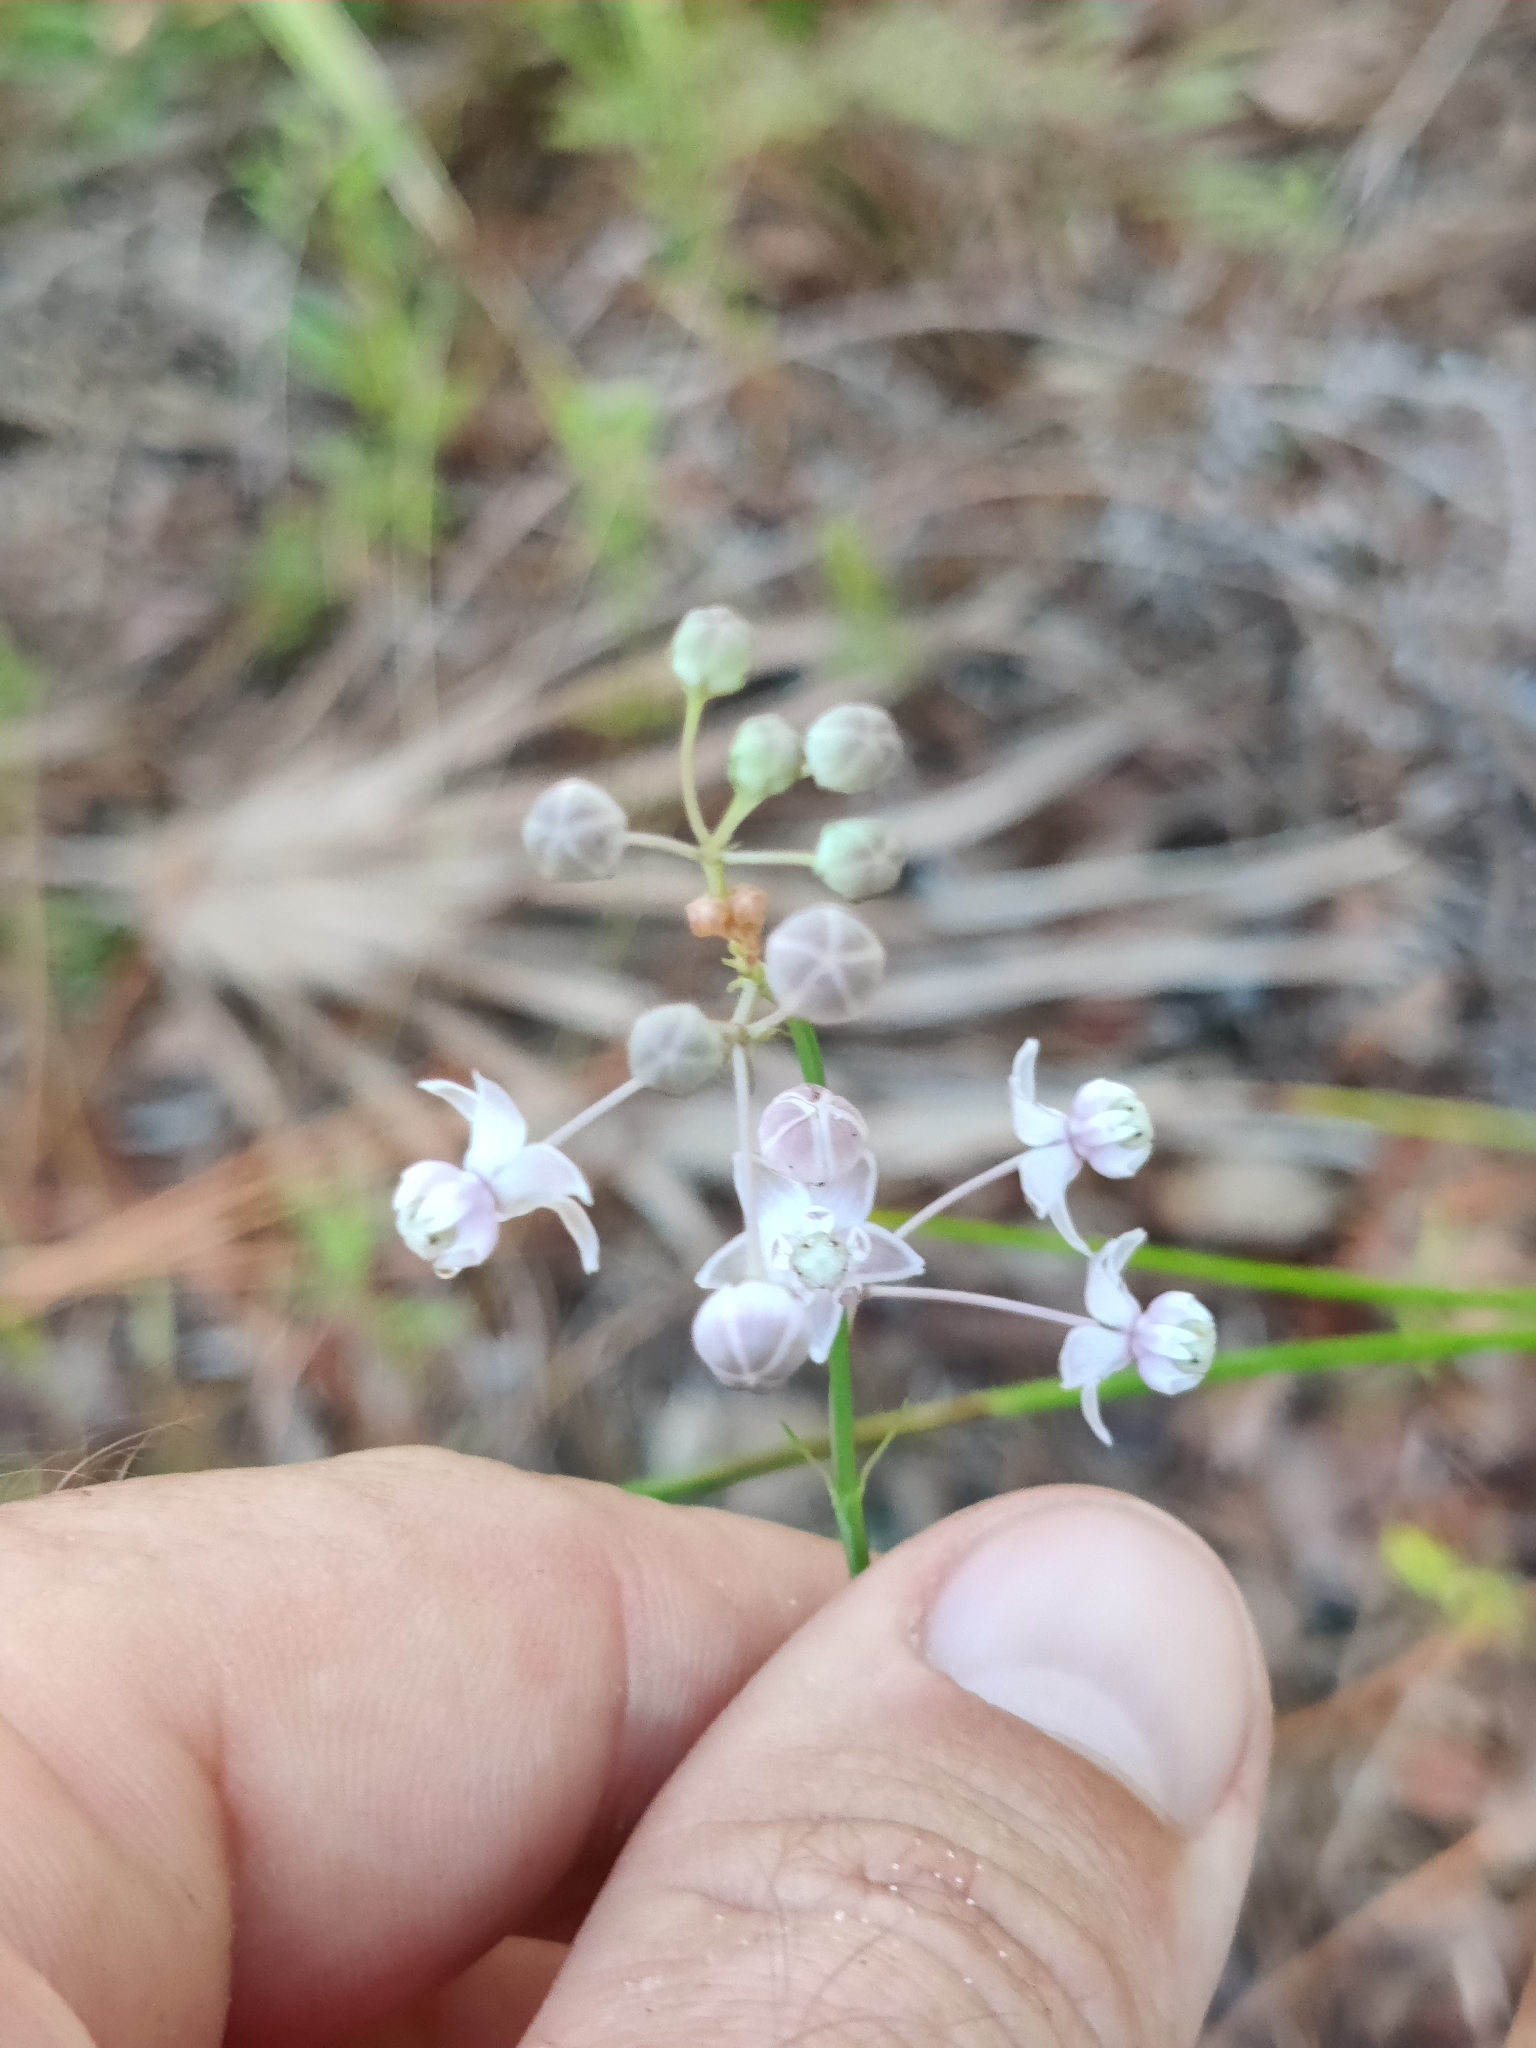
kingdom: Plantae
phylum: Tracheophyta
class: Magnoliopsida
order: Gentianales
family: Apocynaceae
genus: Asclepias
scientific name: Asclepias cinerea
